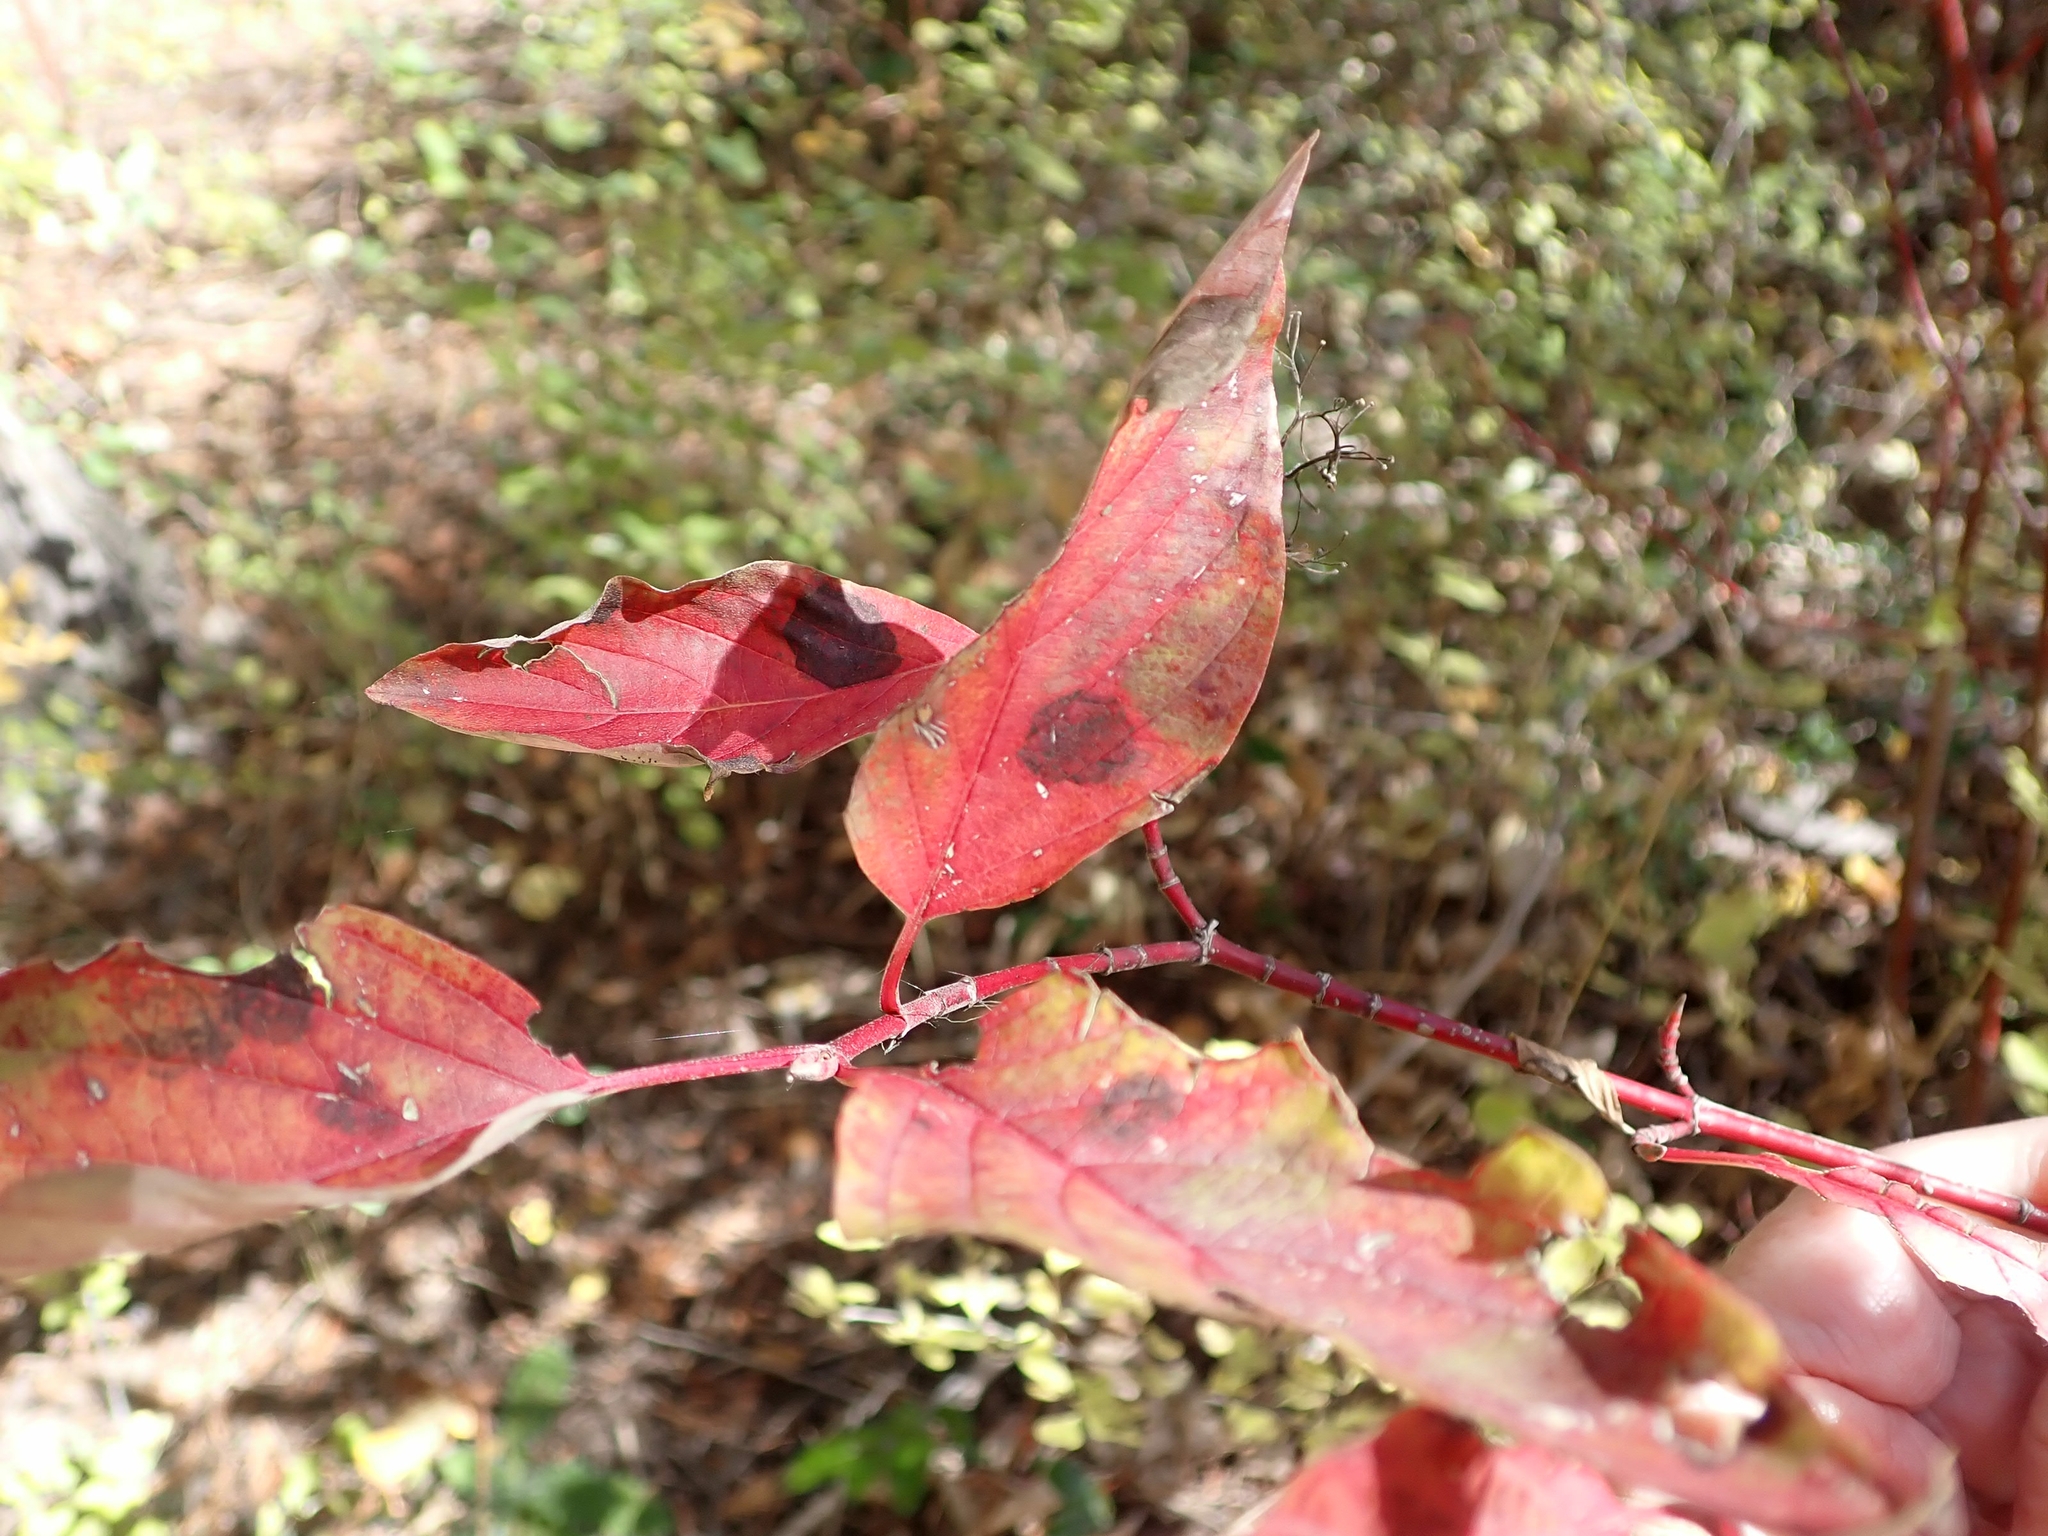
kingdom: Plantae
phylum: Tracheophyta
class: Magnoliopsida
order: Cornales
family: Cornaceae
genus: Cornus
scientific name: Cornus sericea
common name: Red-osier dogwood
